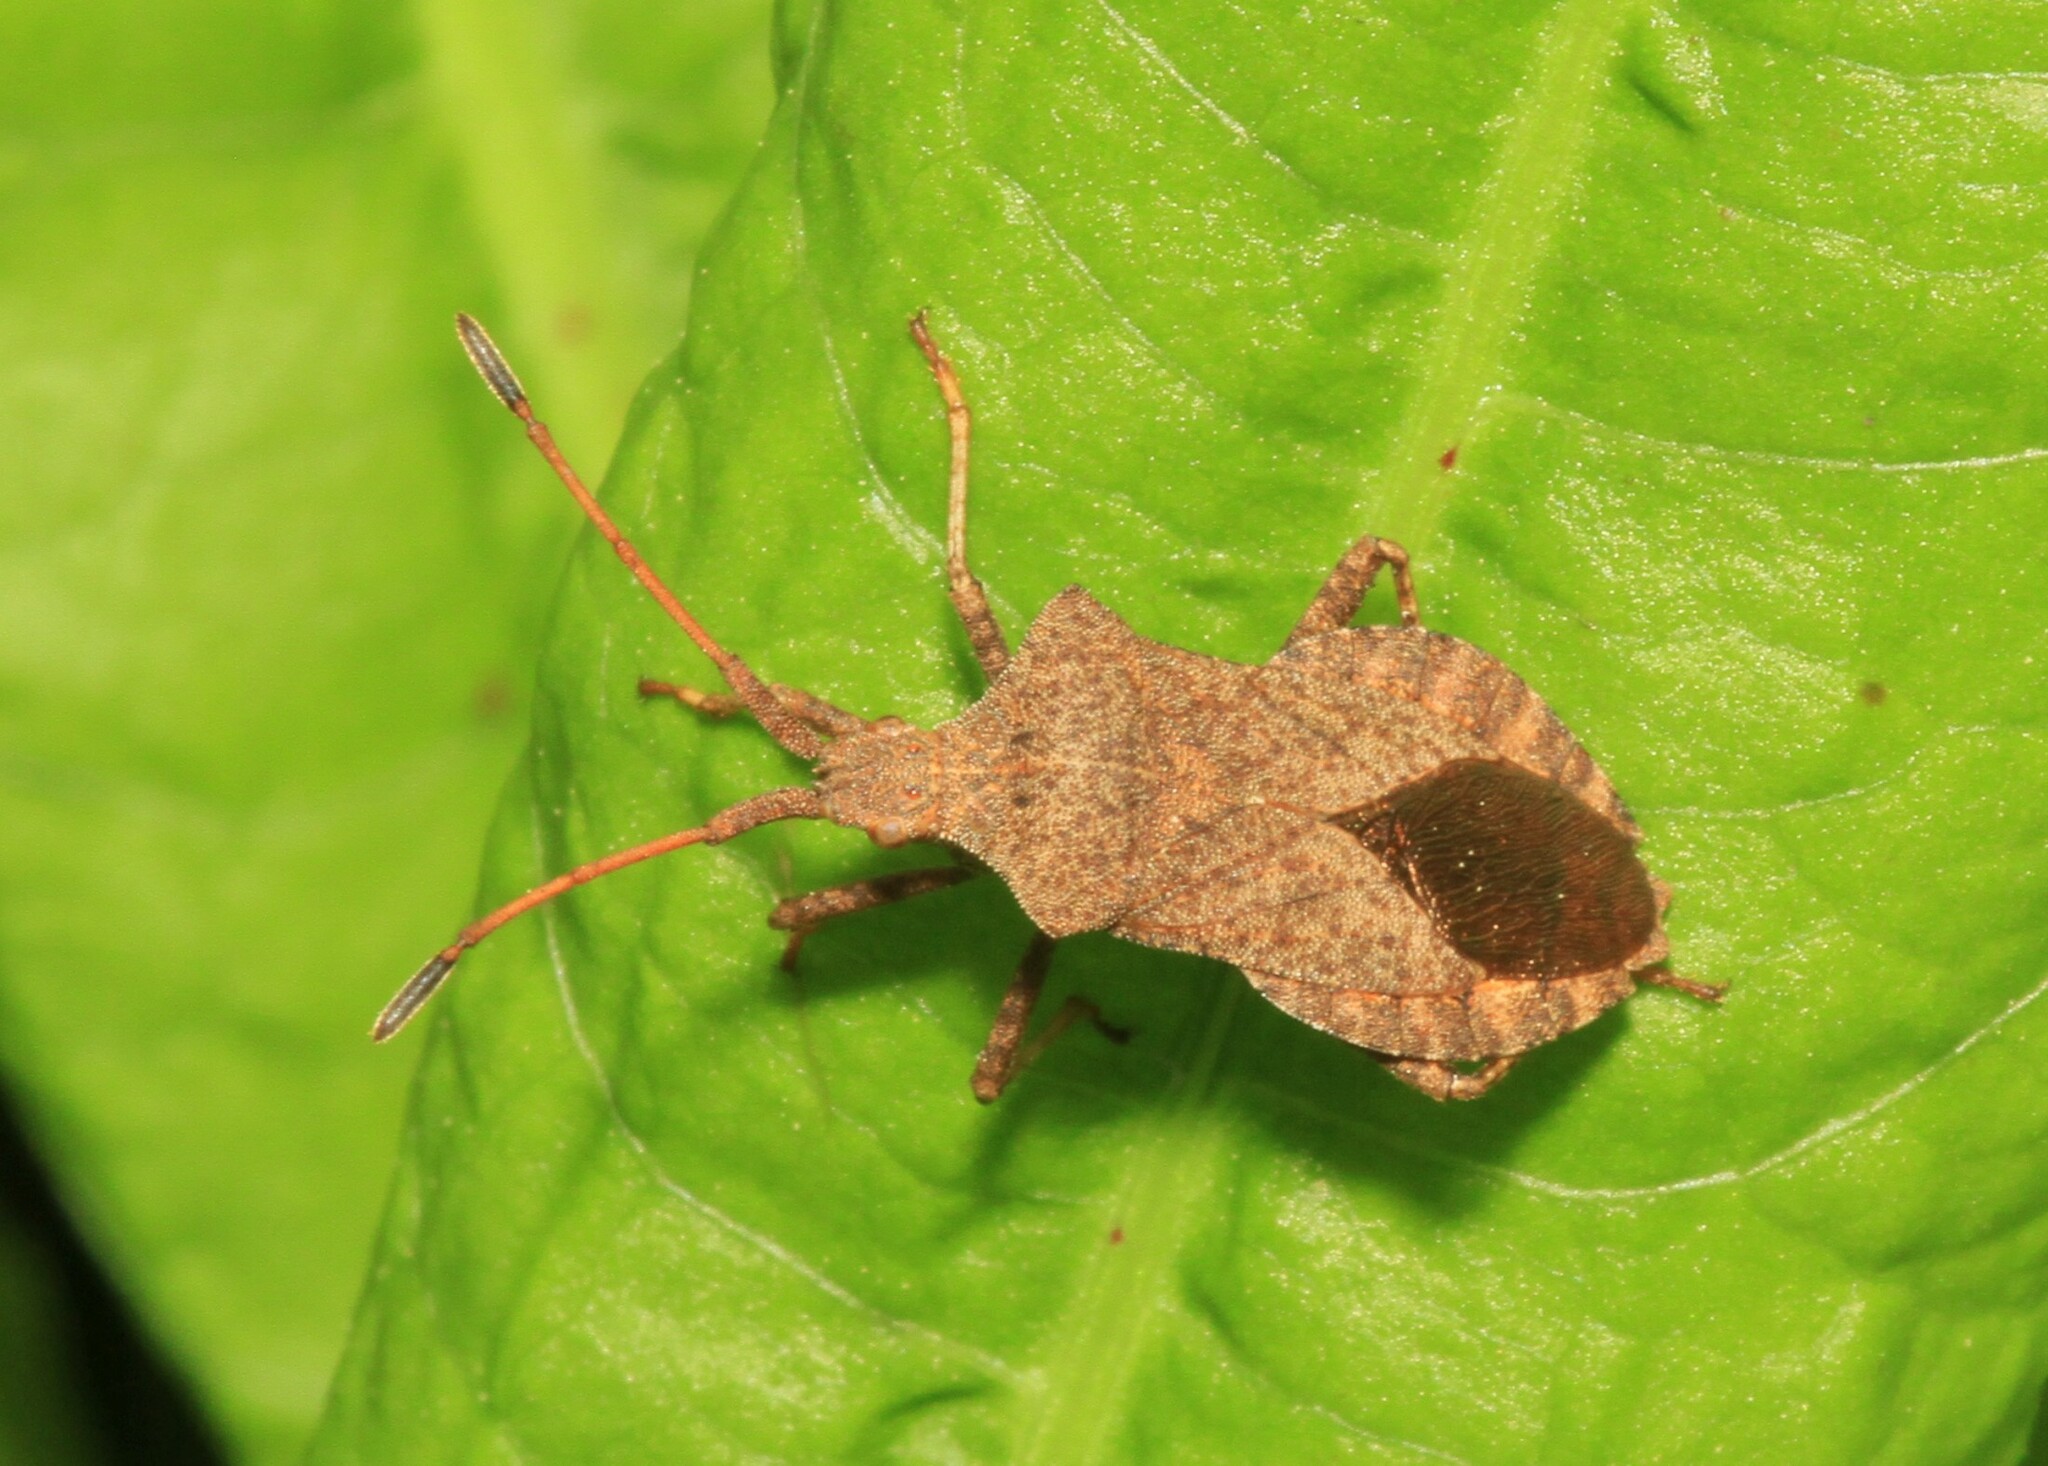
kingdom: Animalia
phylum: Arthropoda
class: Insecta
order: Hemiptera
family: Coreidae
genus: Coreus
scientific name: Coreus marginatus
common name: Dock bug
